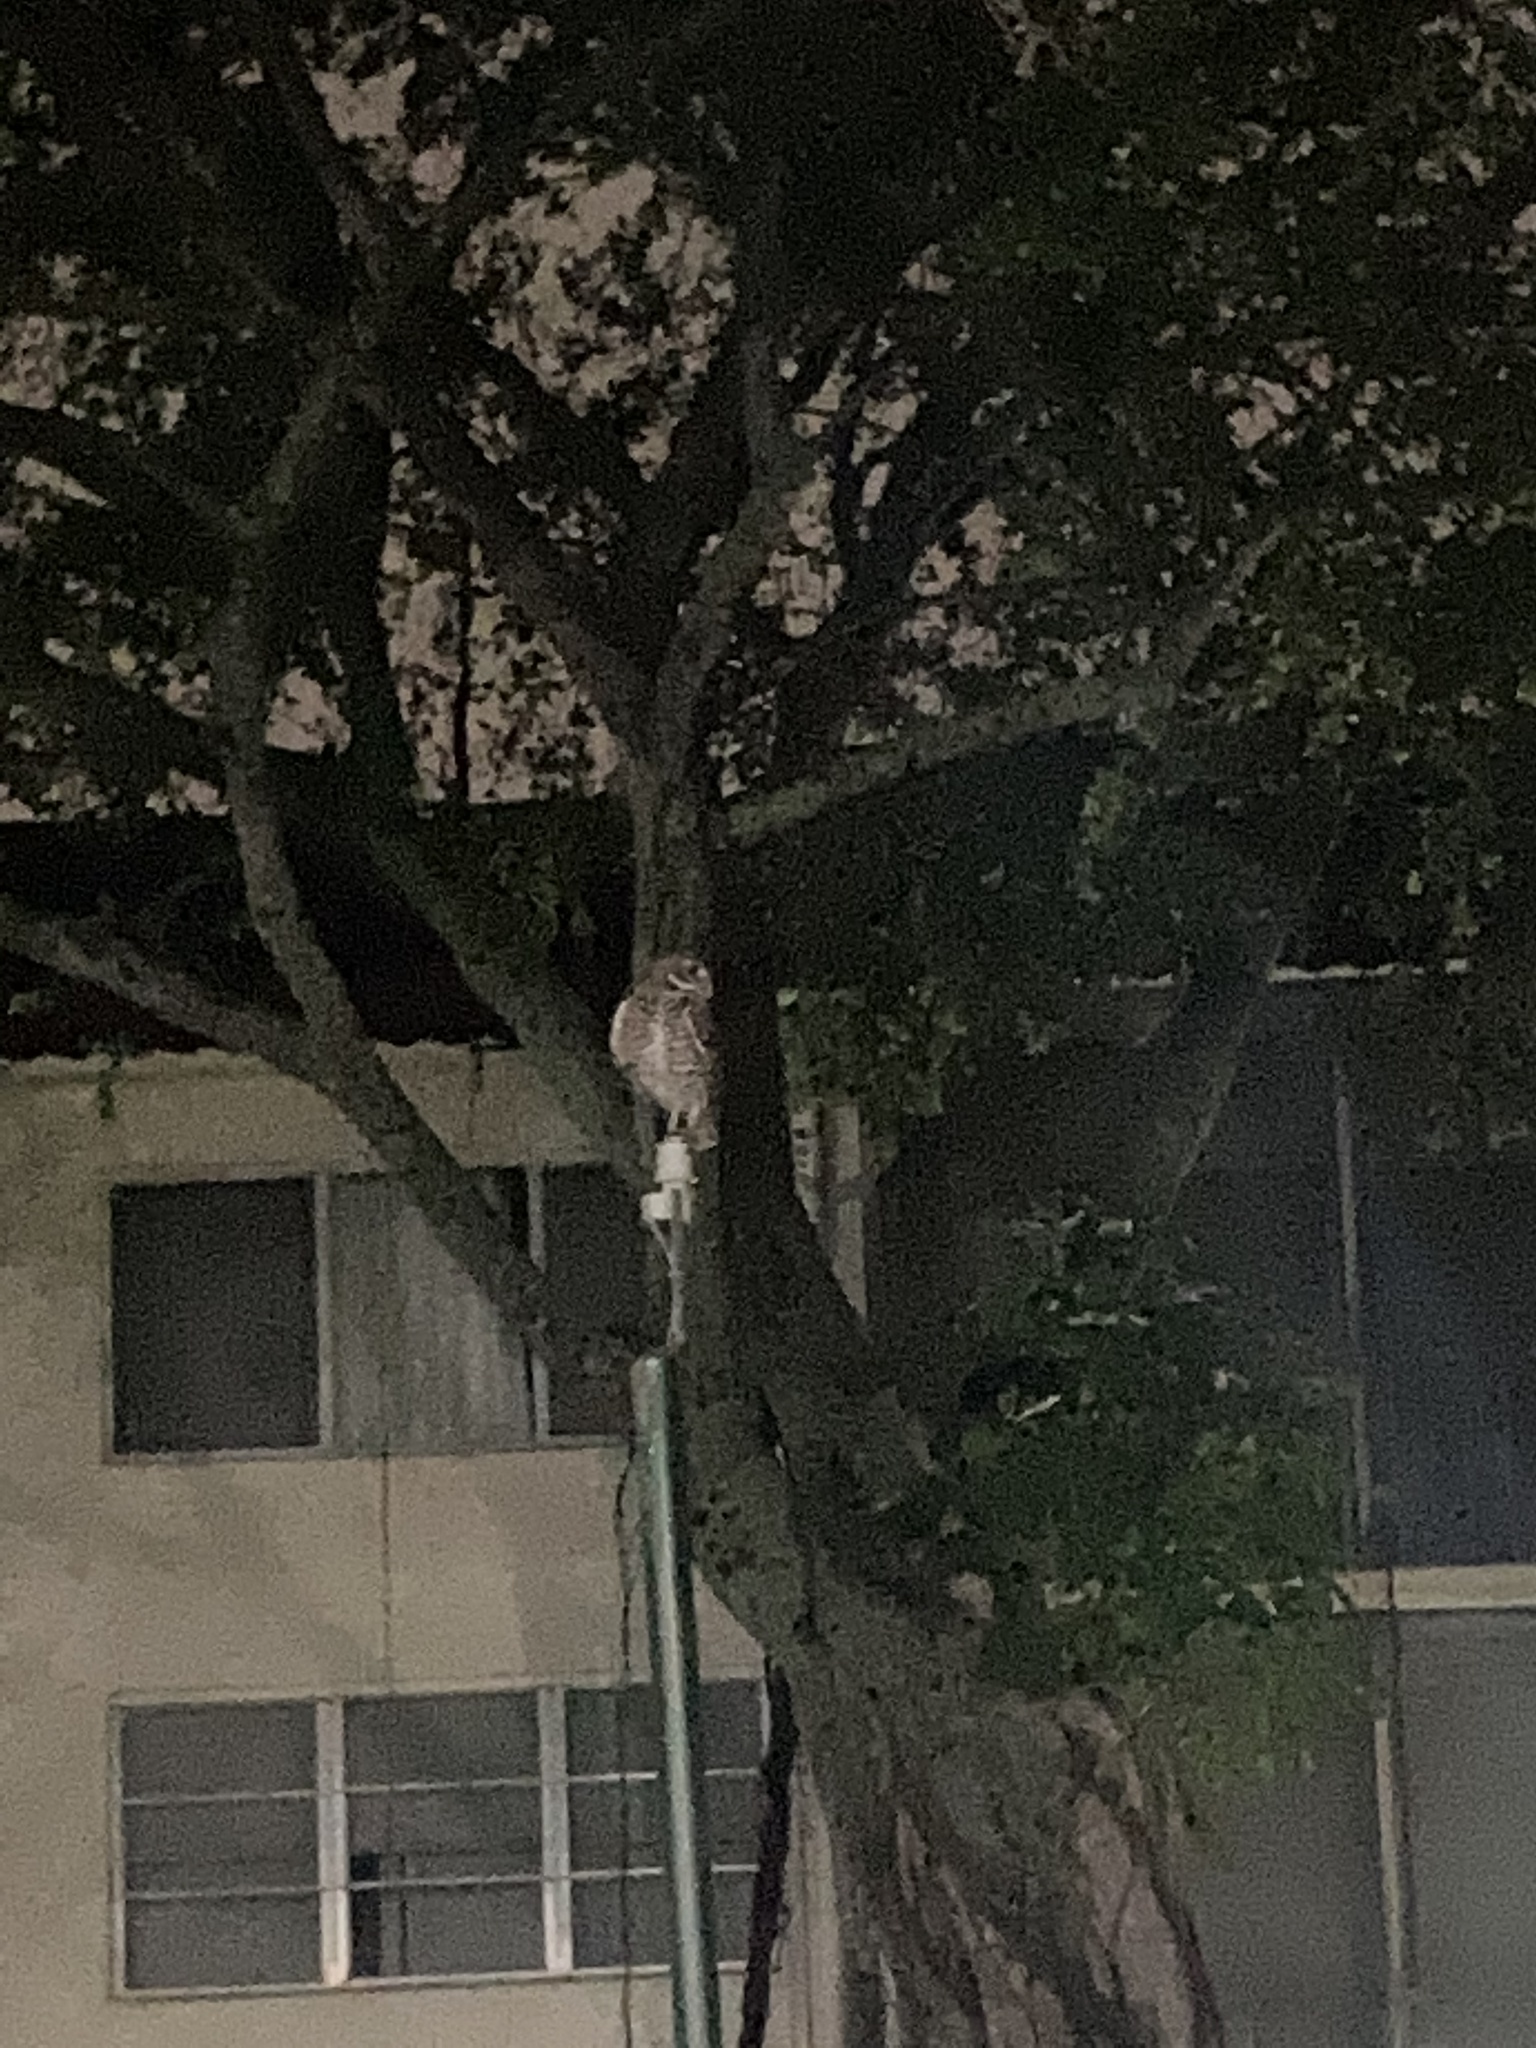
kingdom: Animalia
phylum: Chordata
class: Aves
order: Strigiformes
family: Strigidae
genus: Athene
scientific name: Athene cunicularia
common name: Burrowing owl
